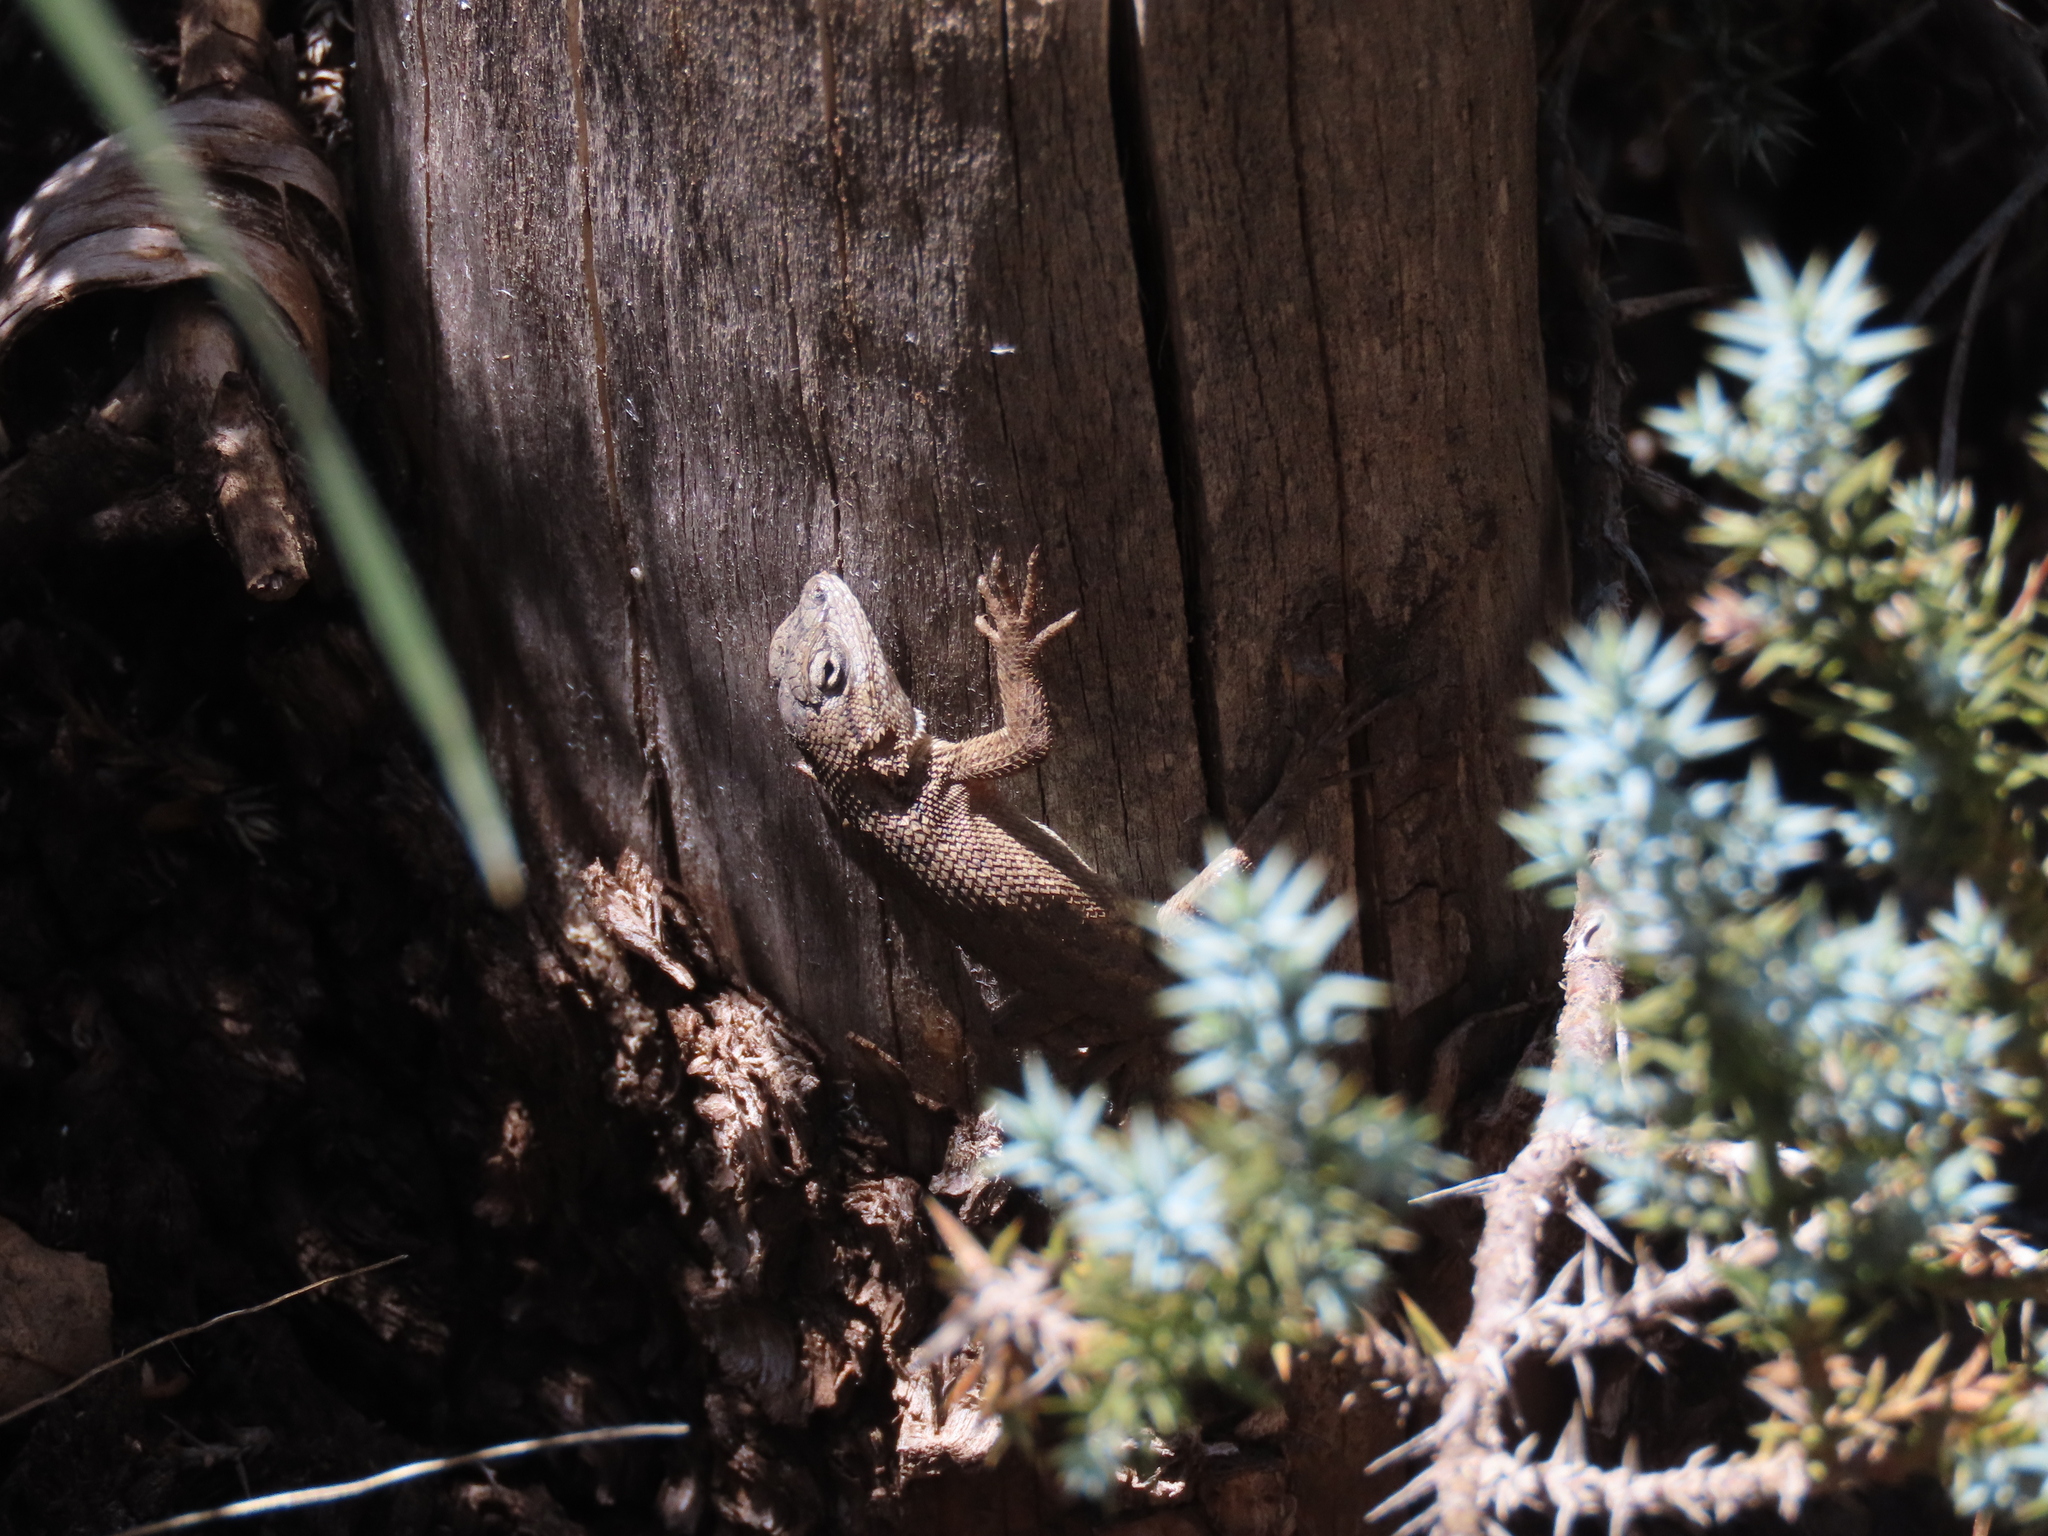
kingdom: Animalia
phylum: Chordata
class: Squamata
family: Phrynosomatidae
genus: Sceloporus
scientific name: Sceloporus tristichus
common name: Plateau fence lizard
